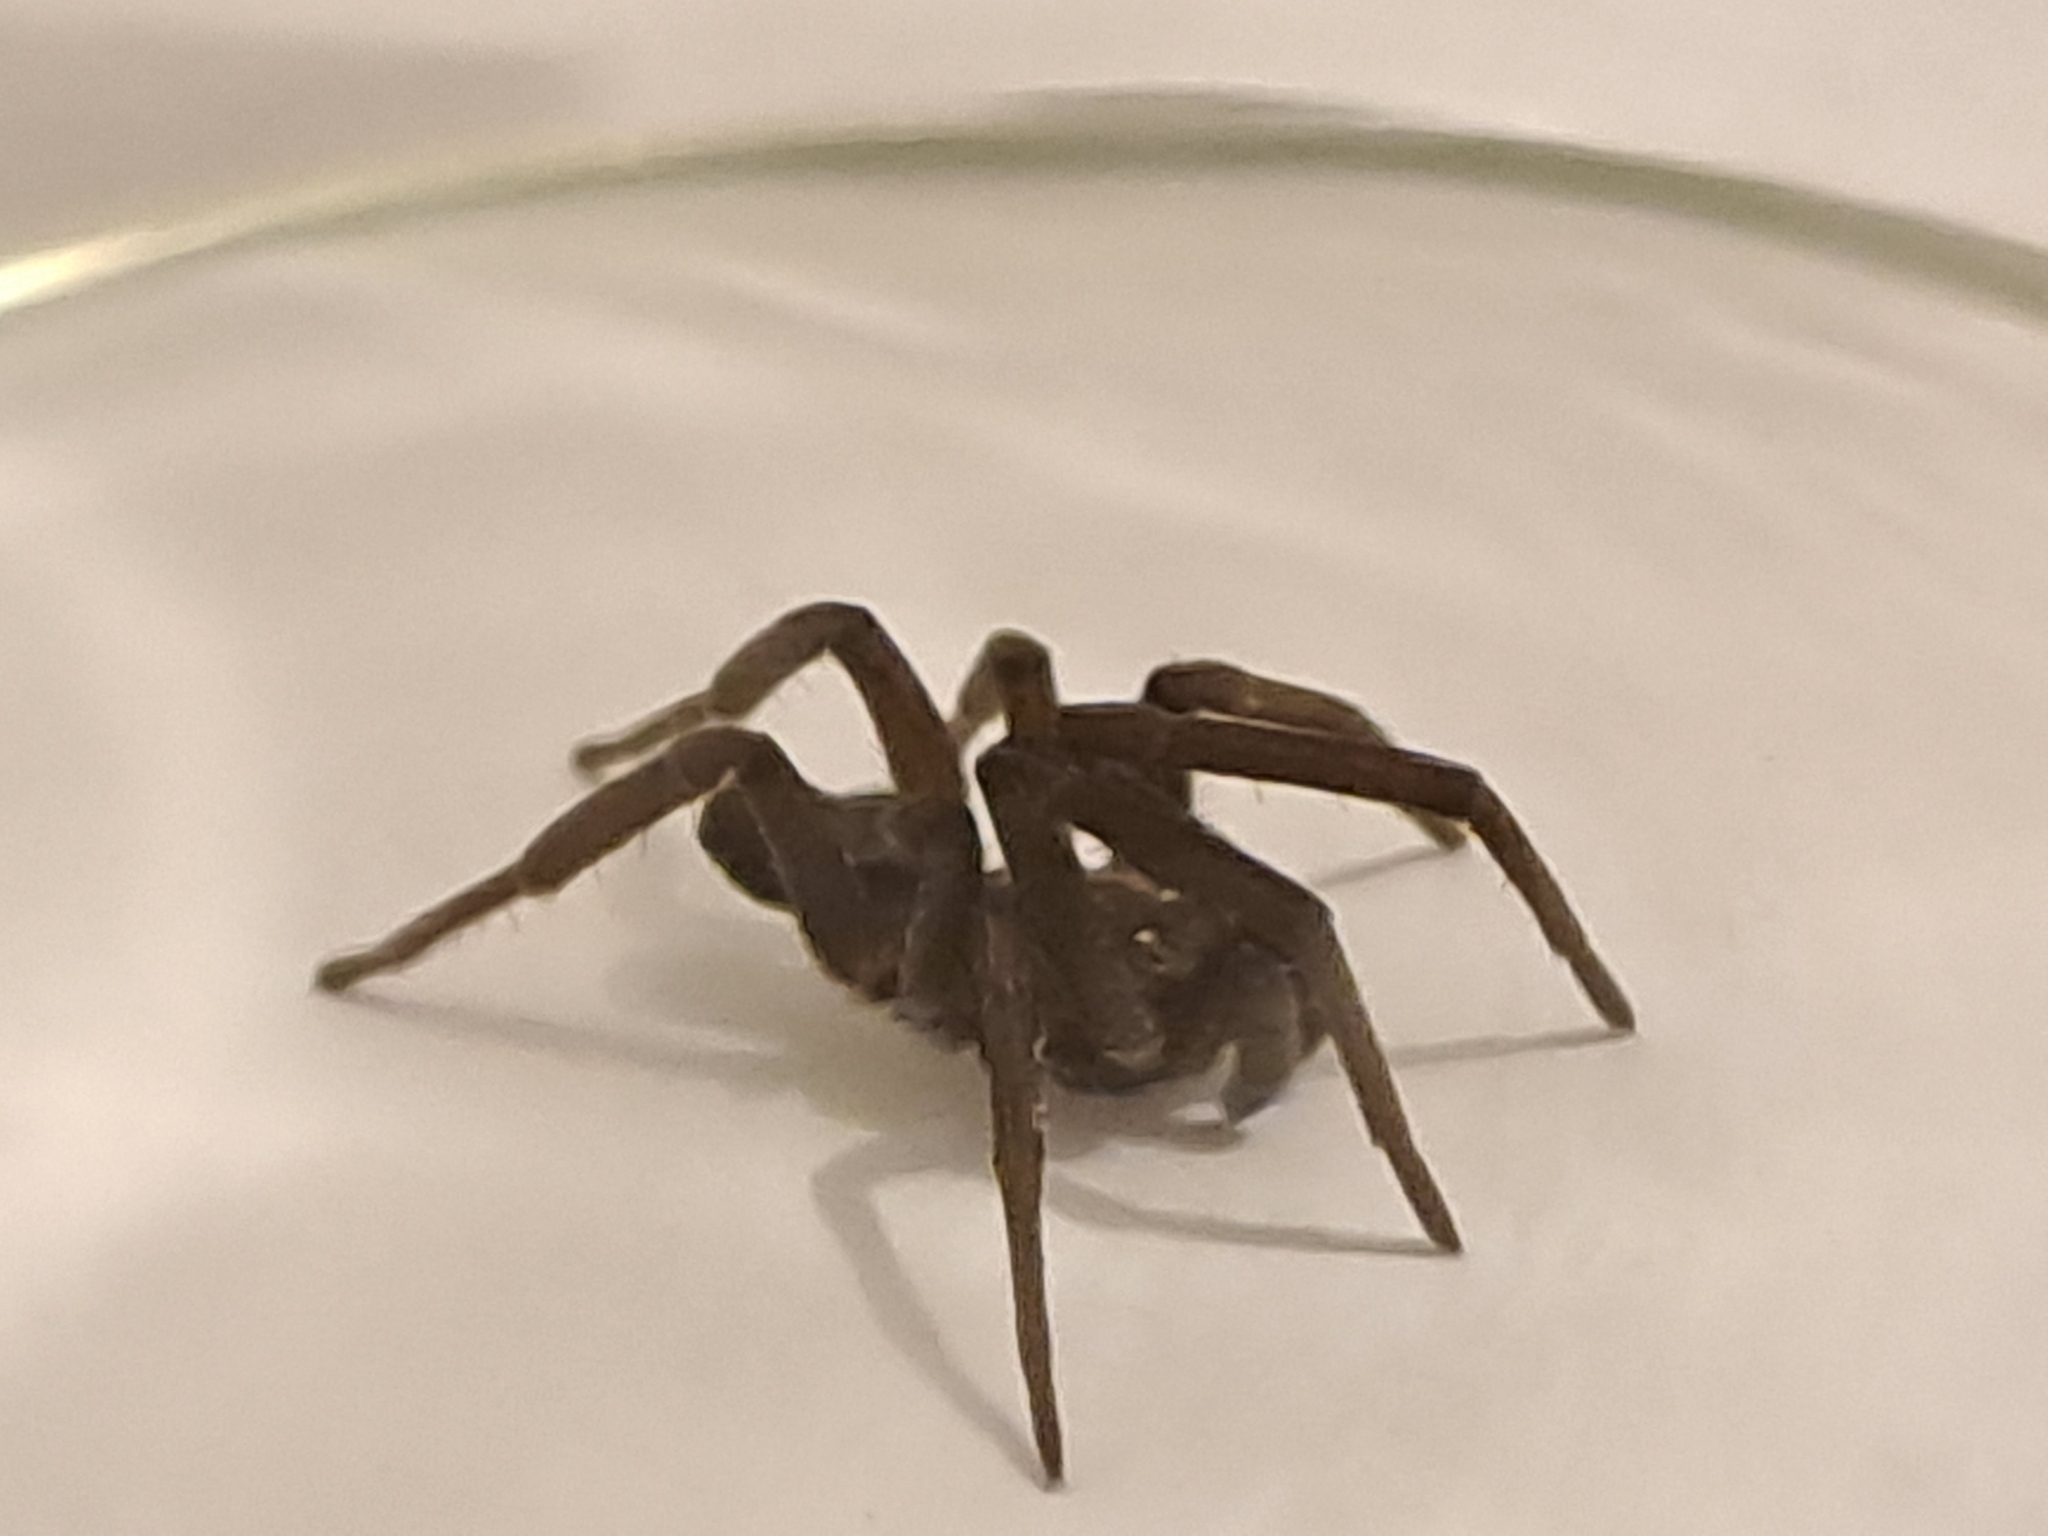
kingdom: Animalia
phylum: Arthropoda
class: Arachnida
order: Araneae
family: Filistatidae
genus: Kukulcania
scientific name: Kukulcania santosi
